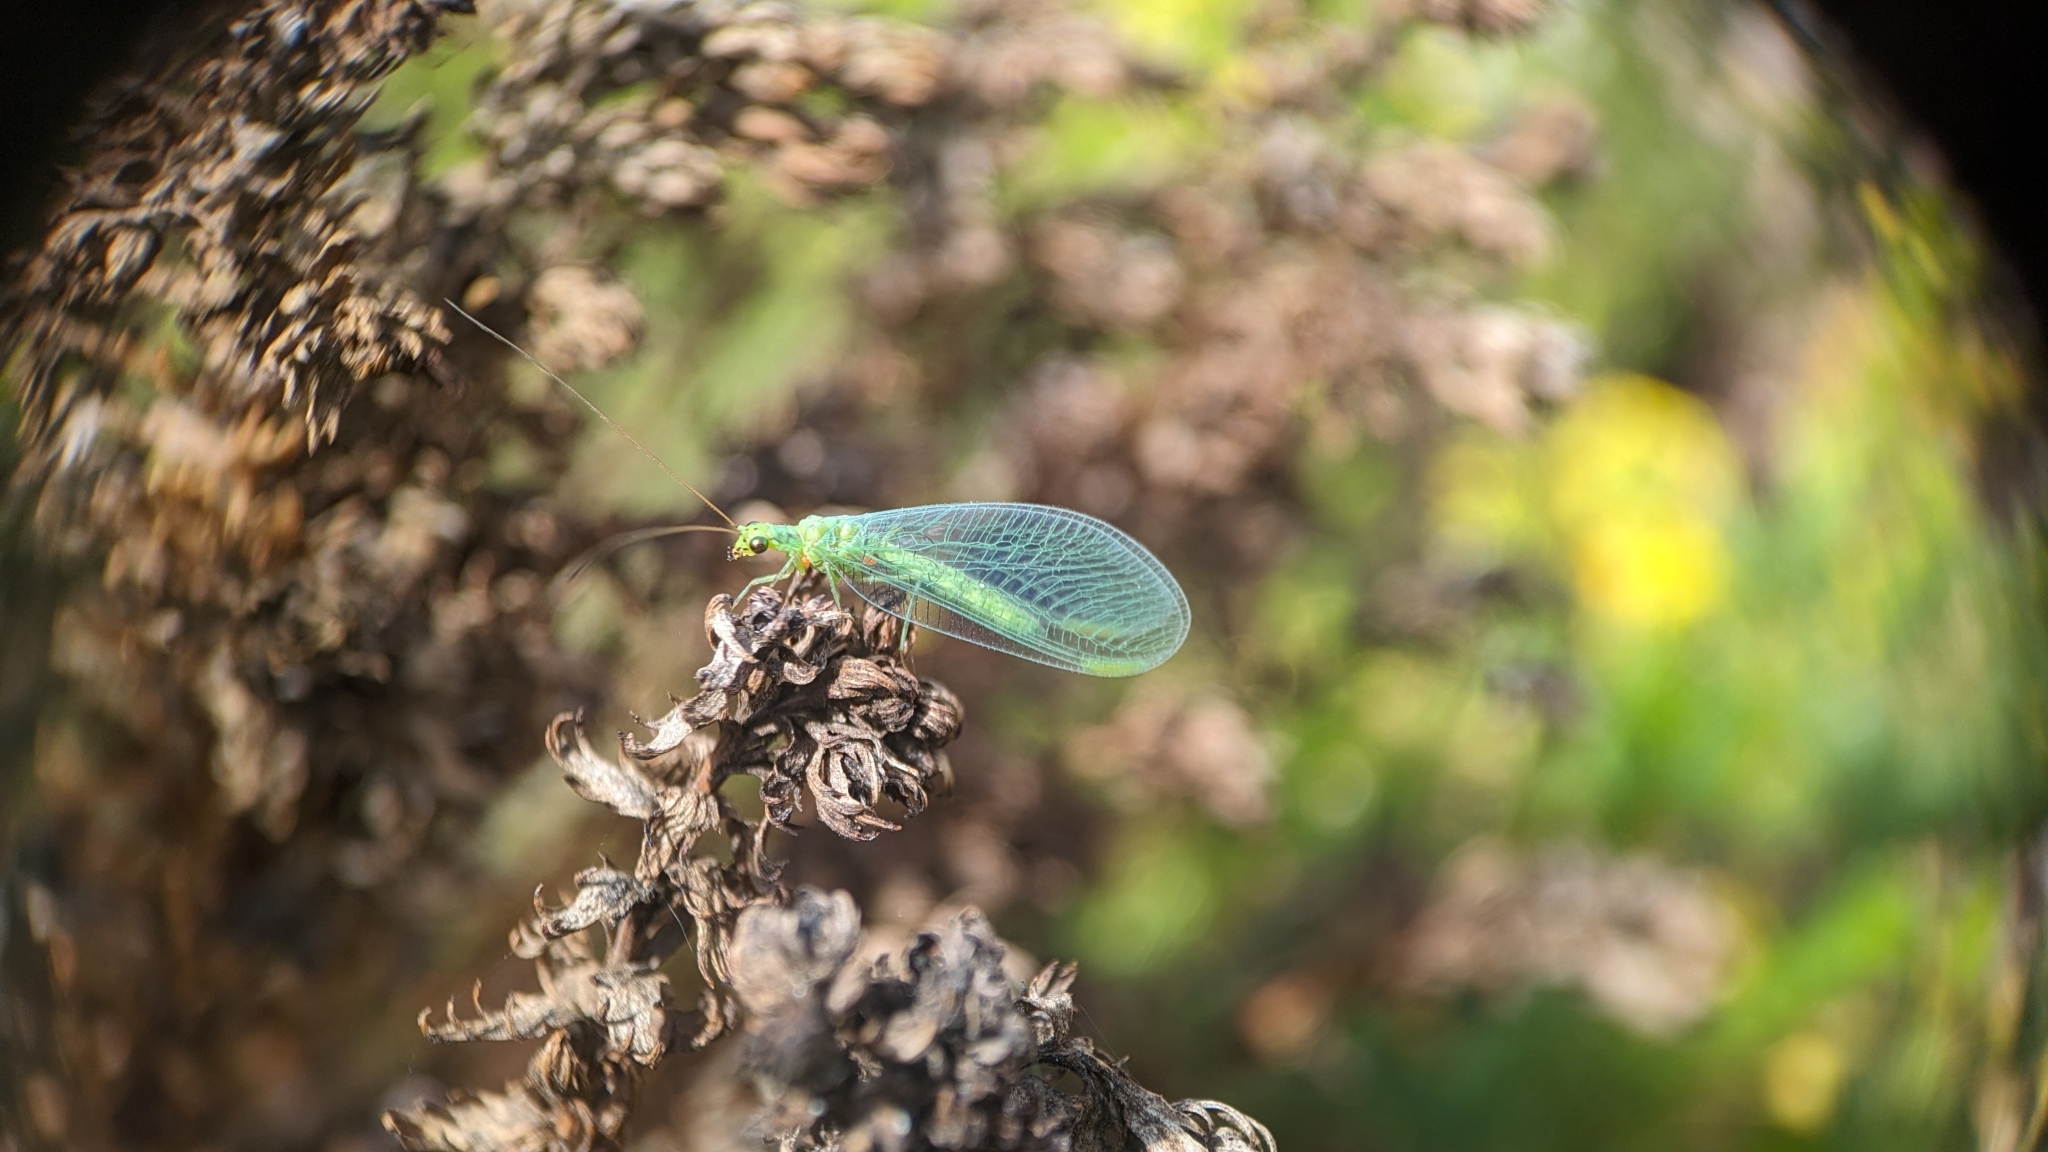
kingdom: Animalia
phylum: Arthropoda
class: Insecta
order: Neuroptera
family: Chrysopidae
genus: Chrysopa
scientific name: Chrysopa formosa
